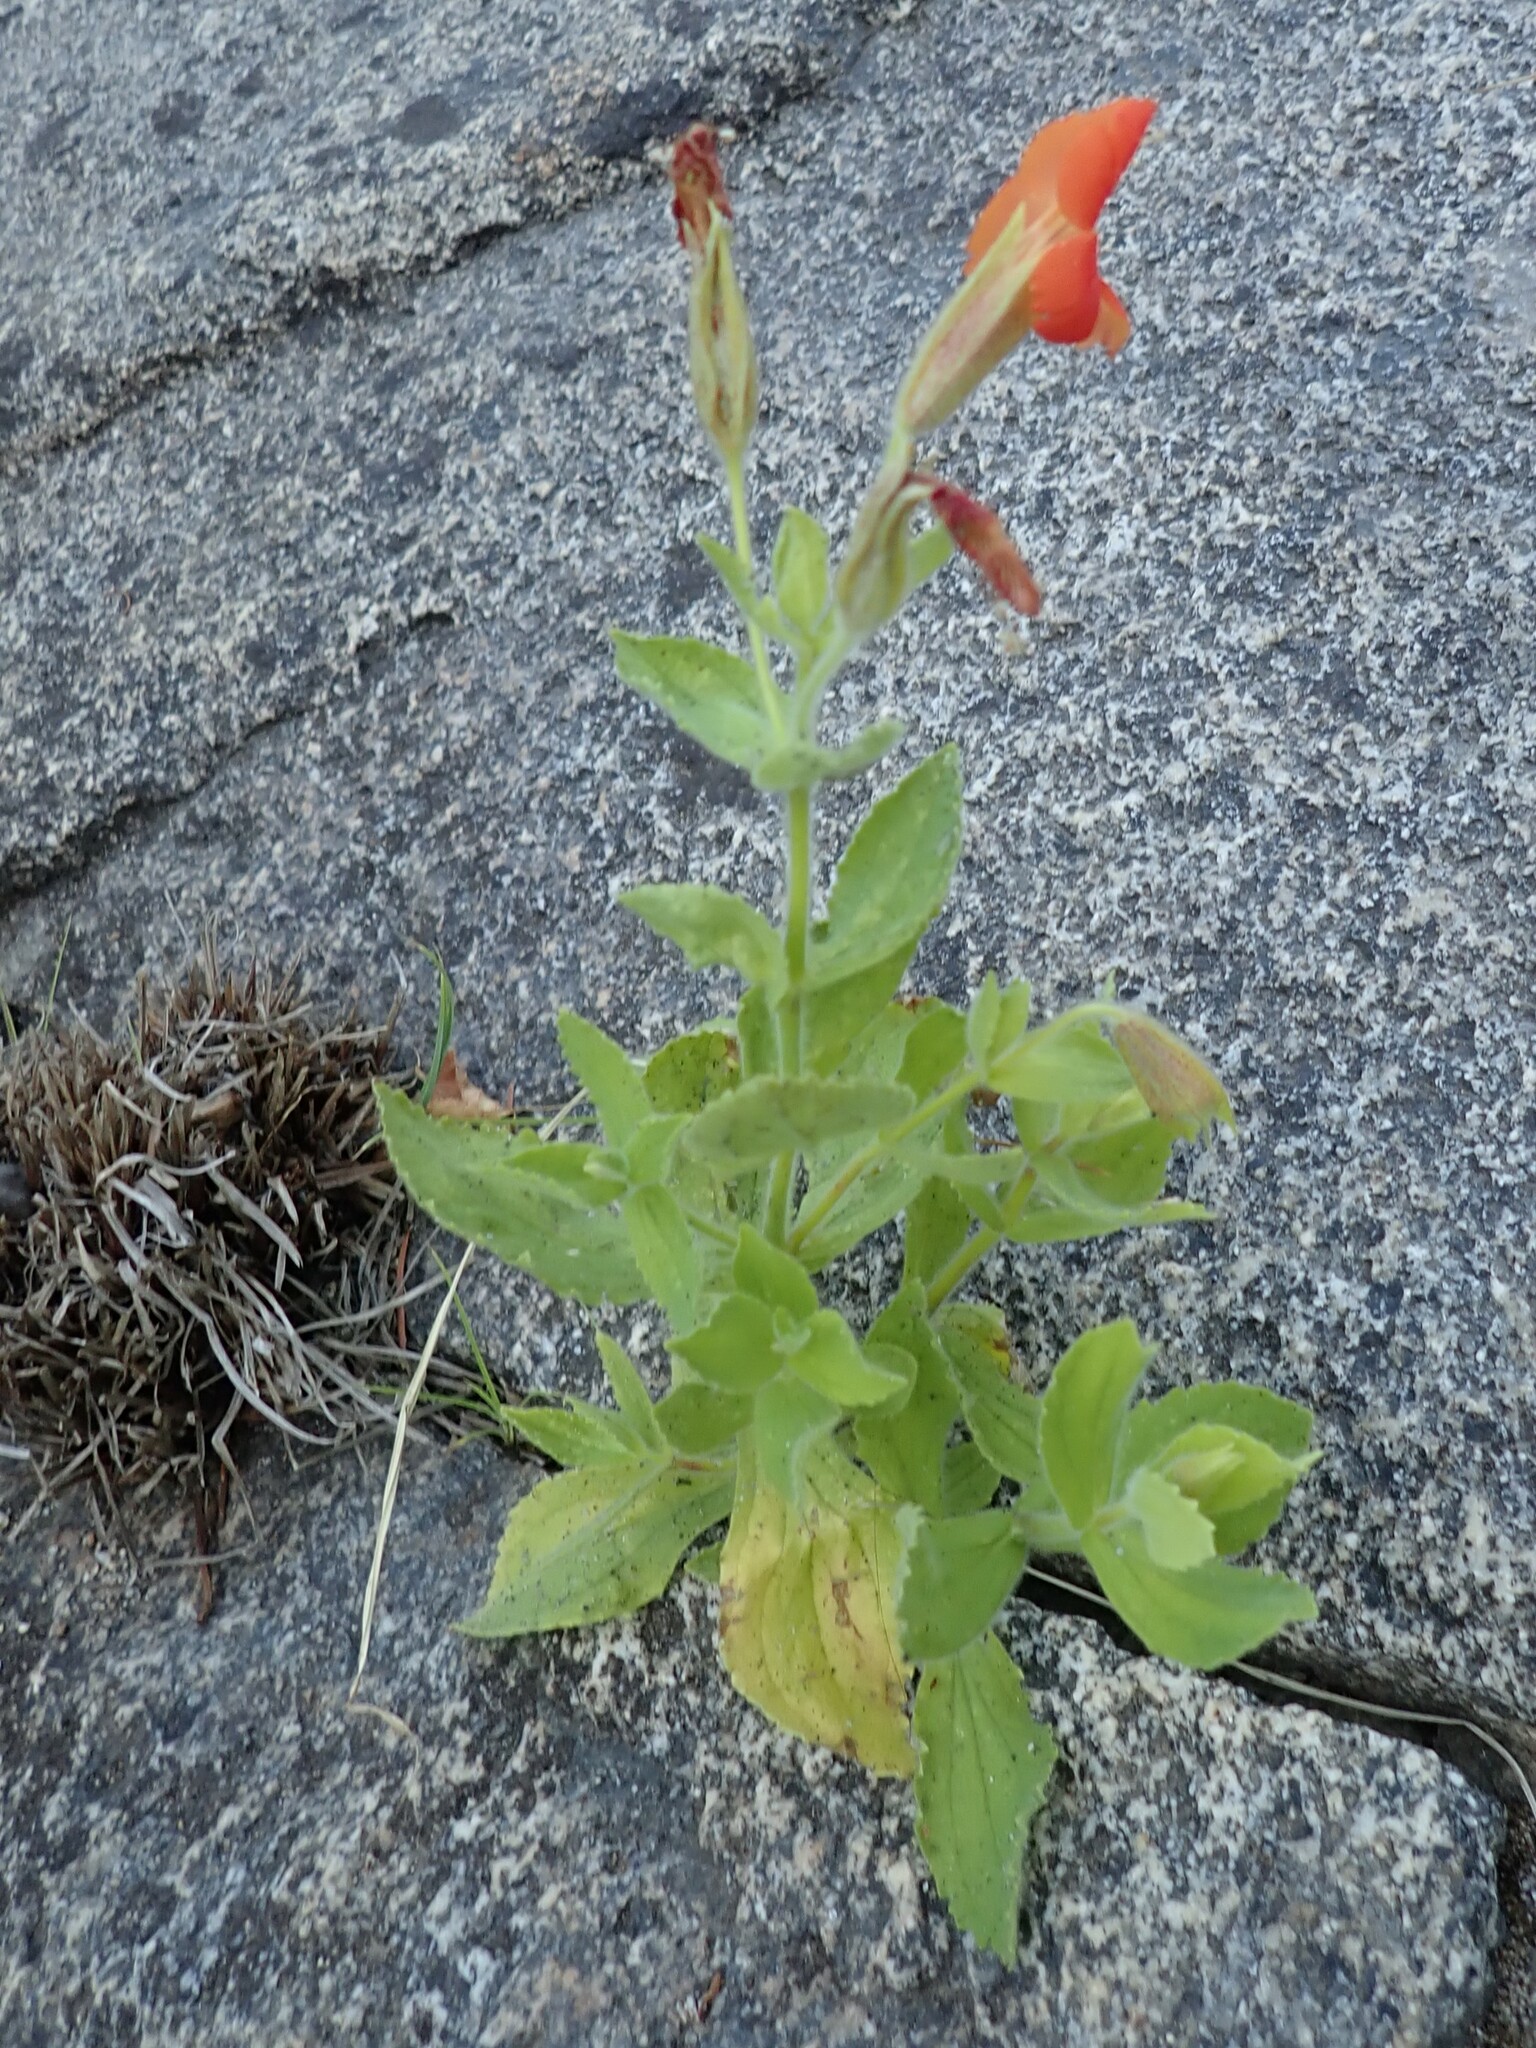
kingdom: Plantae
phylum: Tracheophyta
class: Magnoliopsida
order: Lamiales
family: Phrymaceae
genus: Erythranthe
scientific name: Erythranthe cardinalis
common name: Scarlet monkey-flower
